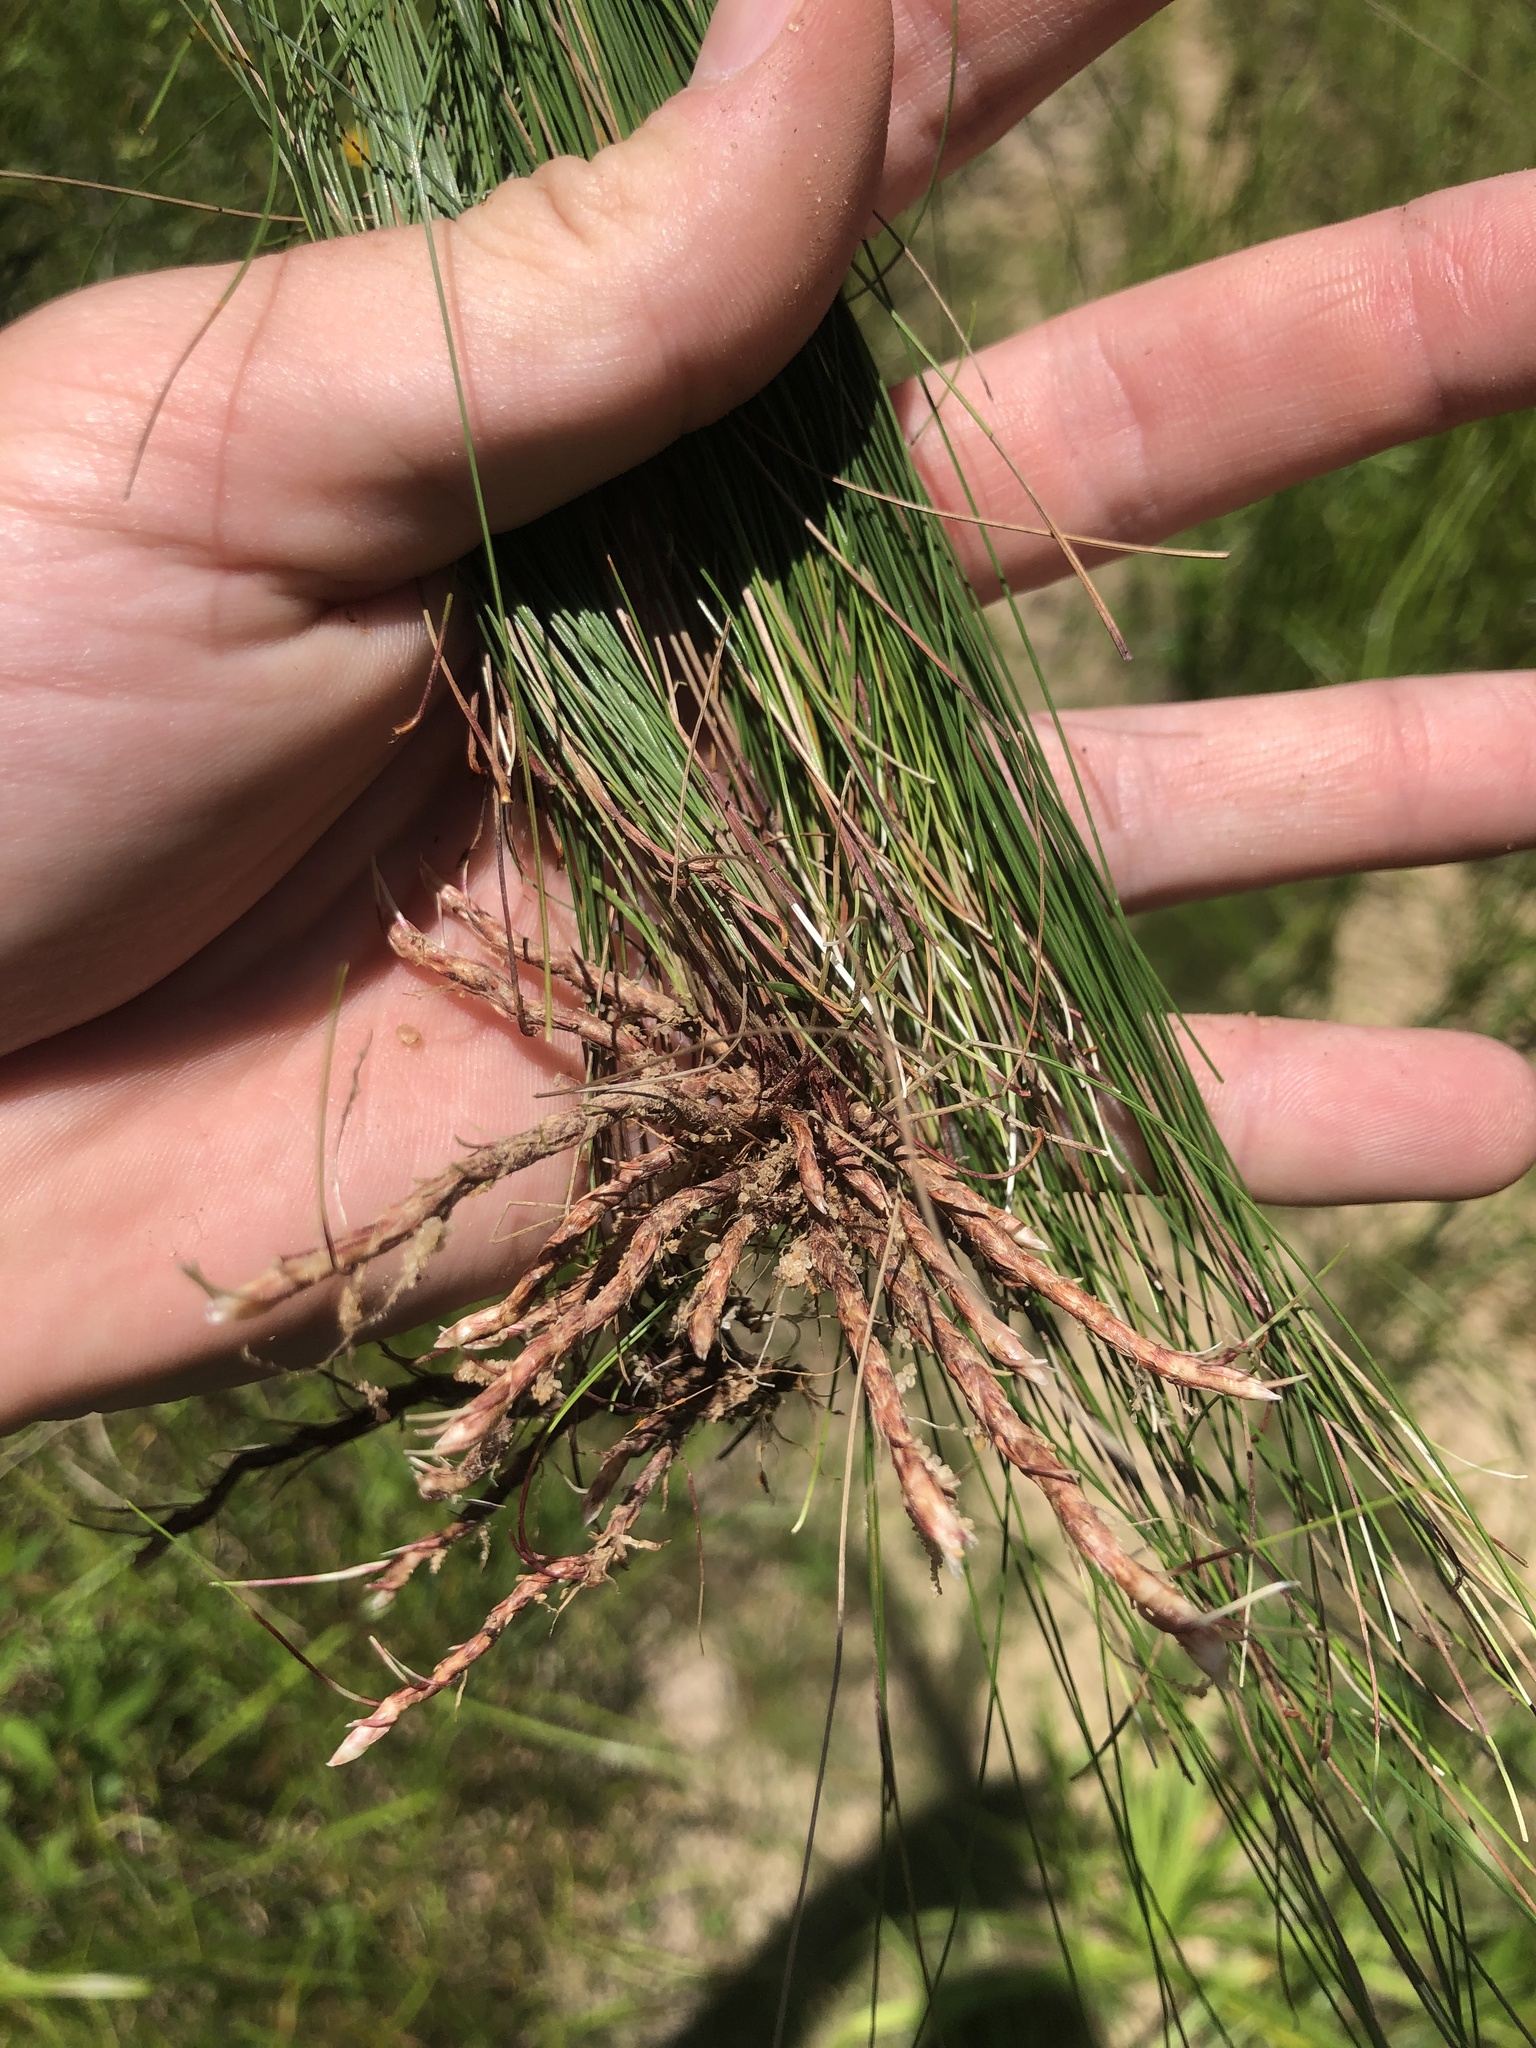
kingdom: Plantae
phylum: Tracheophyta
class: Liliopsida
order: Poales
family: Cyperaceae
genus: Eleocharis
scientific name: Eleocharis tenuis
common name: Dog's hair
